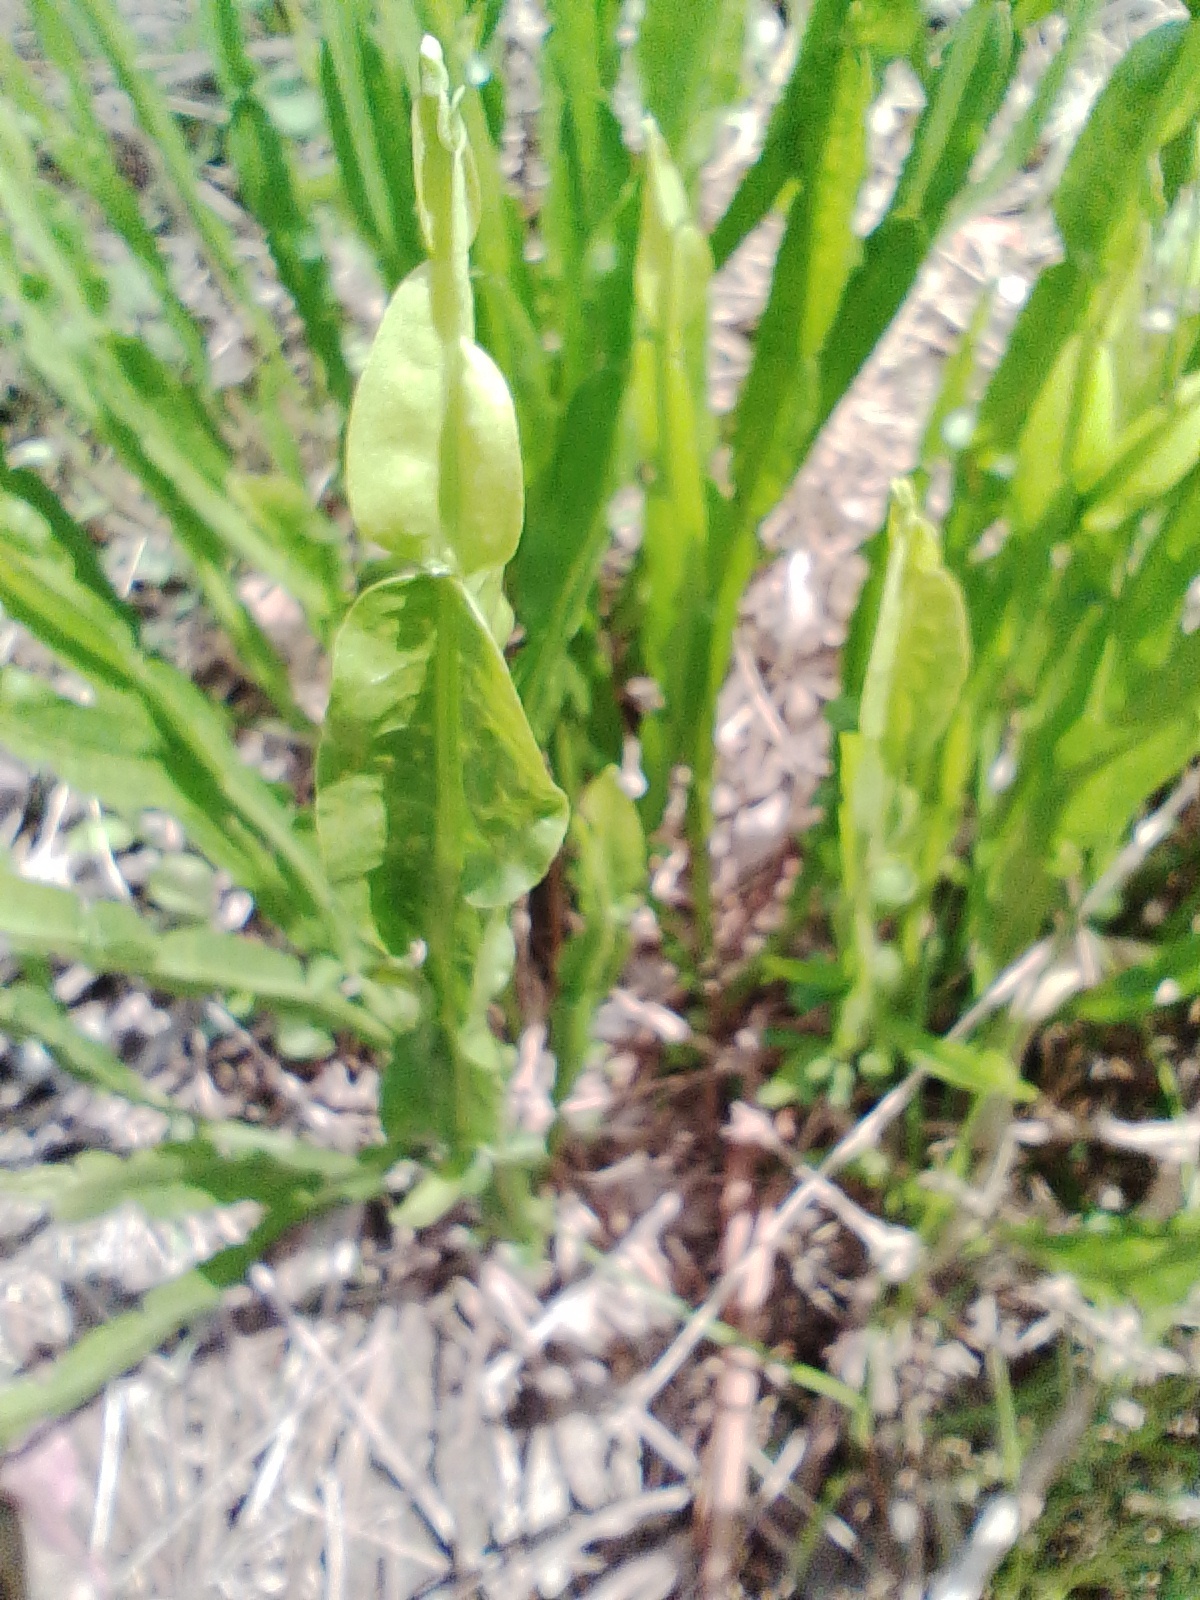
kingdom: Plantae
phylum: Tracheophyta
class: Magnoliopsida
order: Asterales
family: Asteraceae
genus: Baccharis
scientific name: Baccharis trimera
